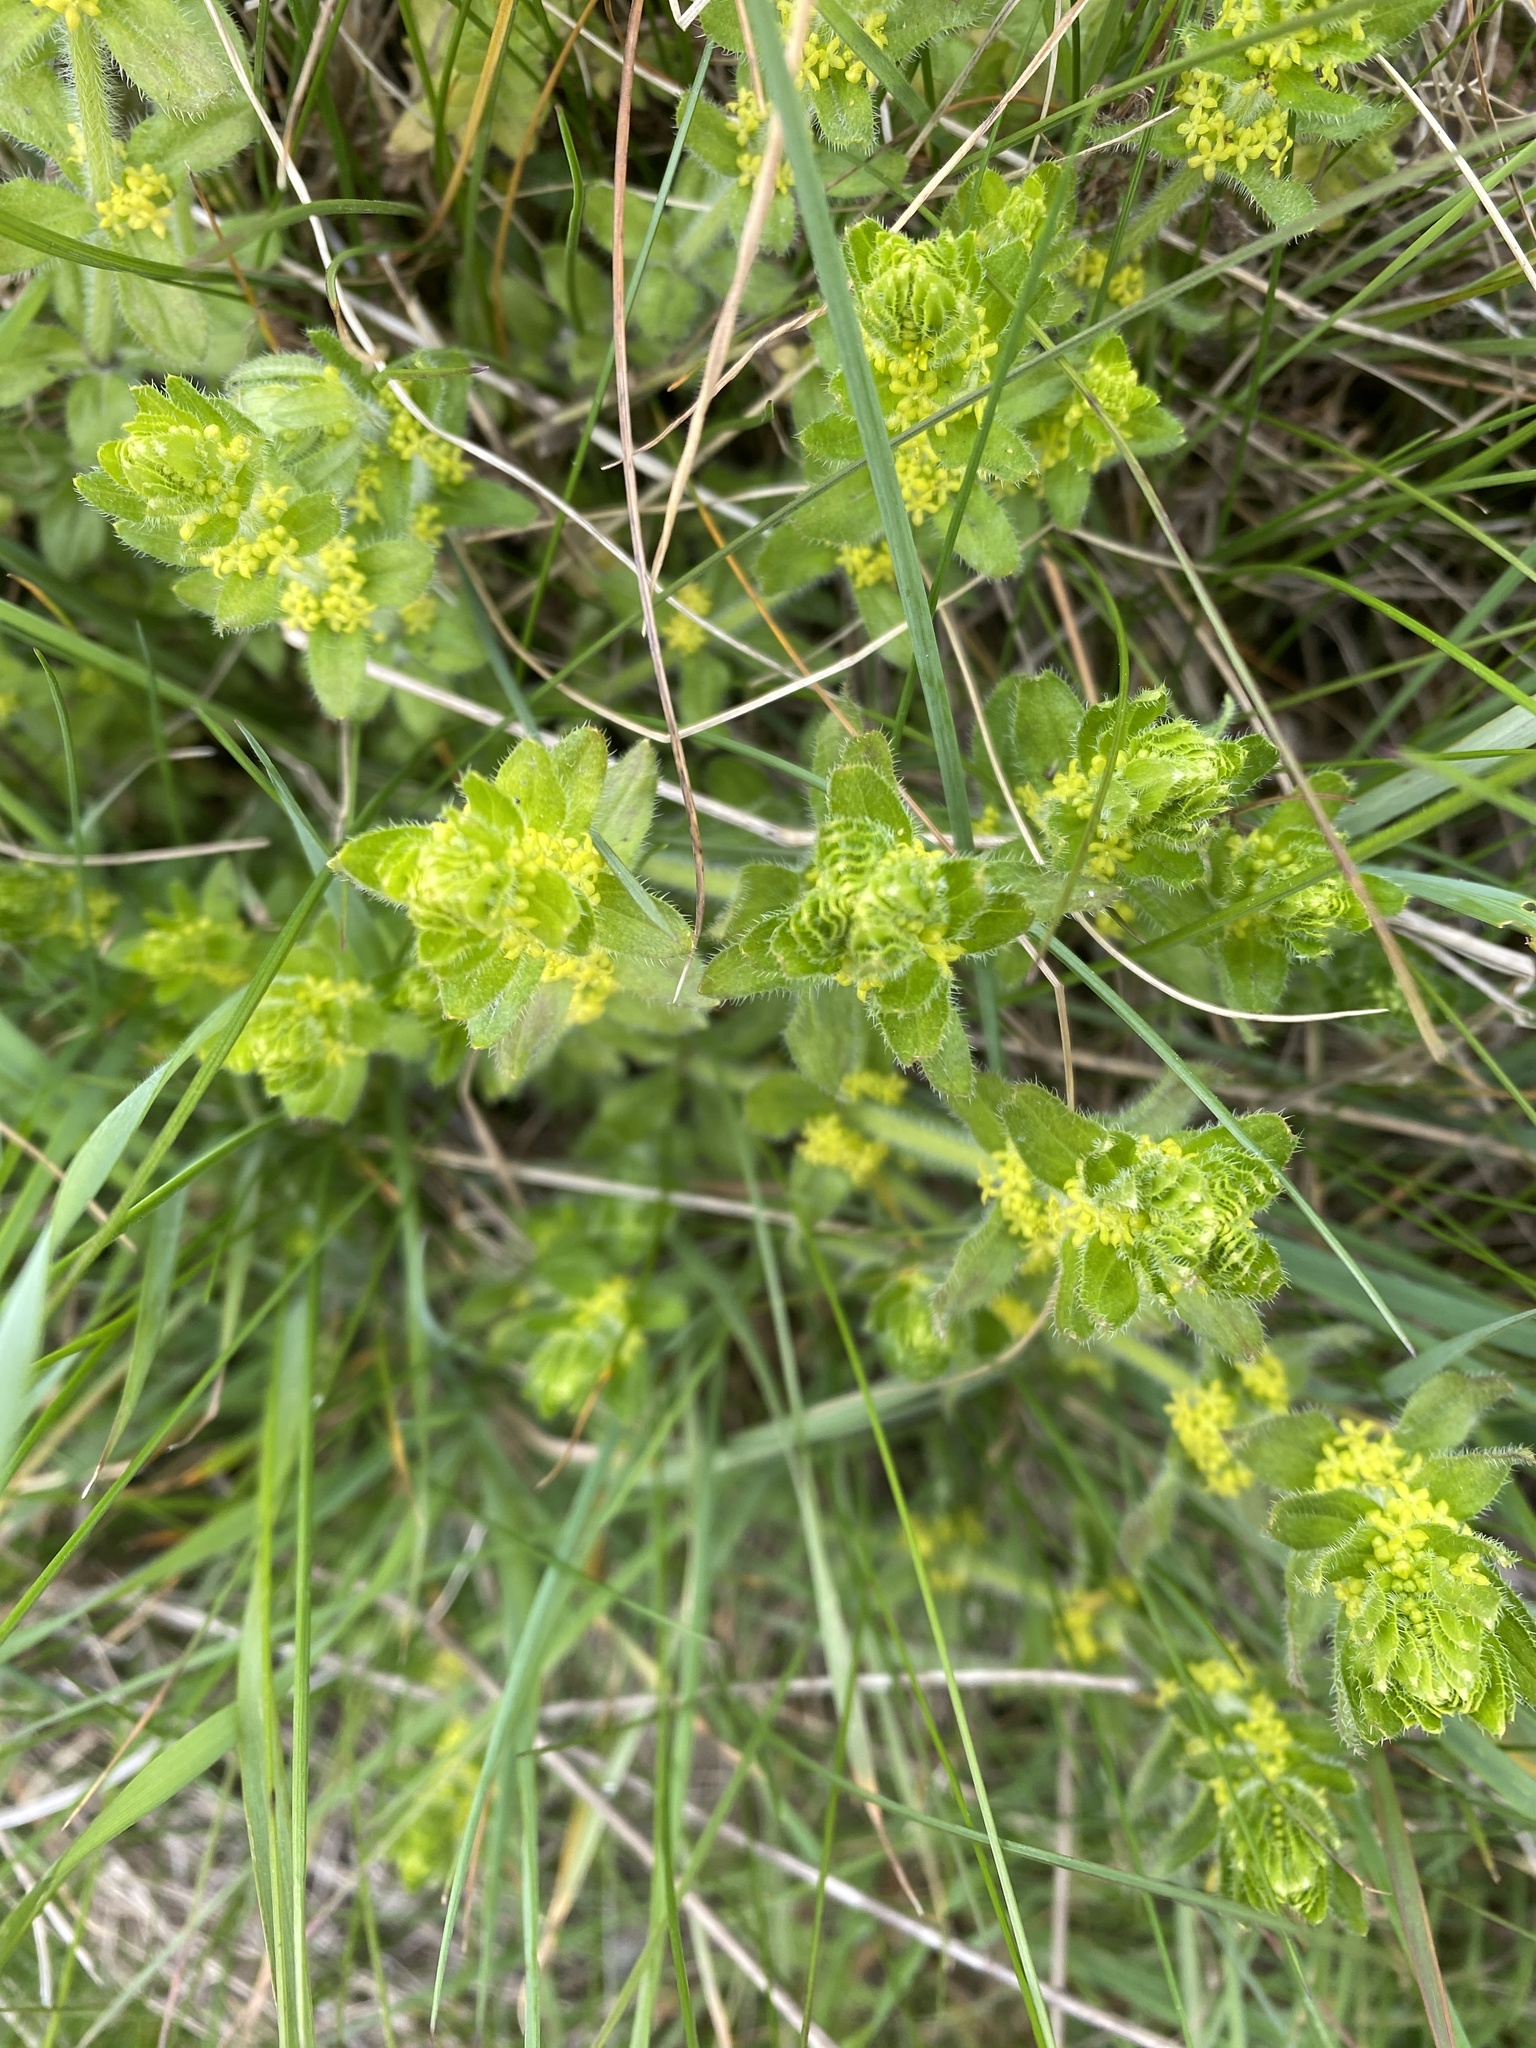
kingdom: Plantae
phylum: Tracheophyta
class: Magnoliopsida
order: Gentianales
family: Rubiaceae
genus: Cruciata
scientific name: Cruciata laevipes
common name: Crosswort
